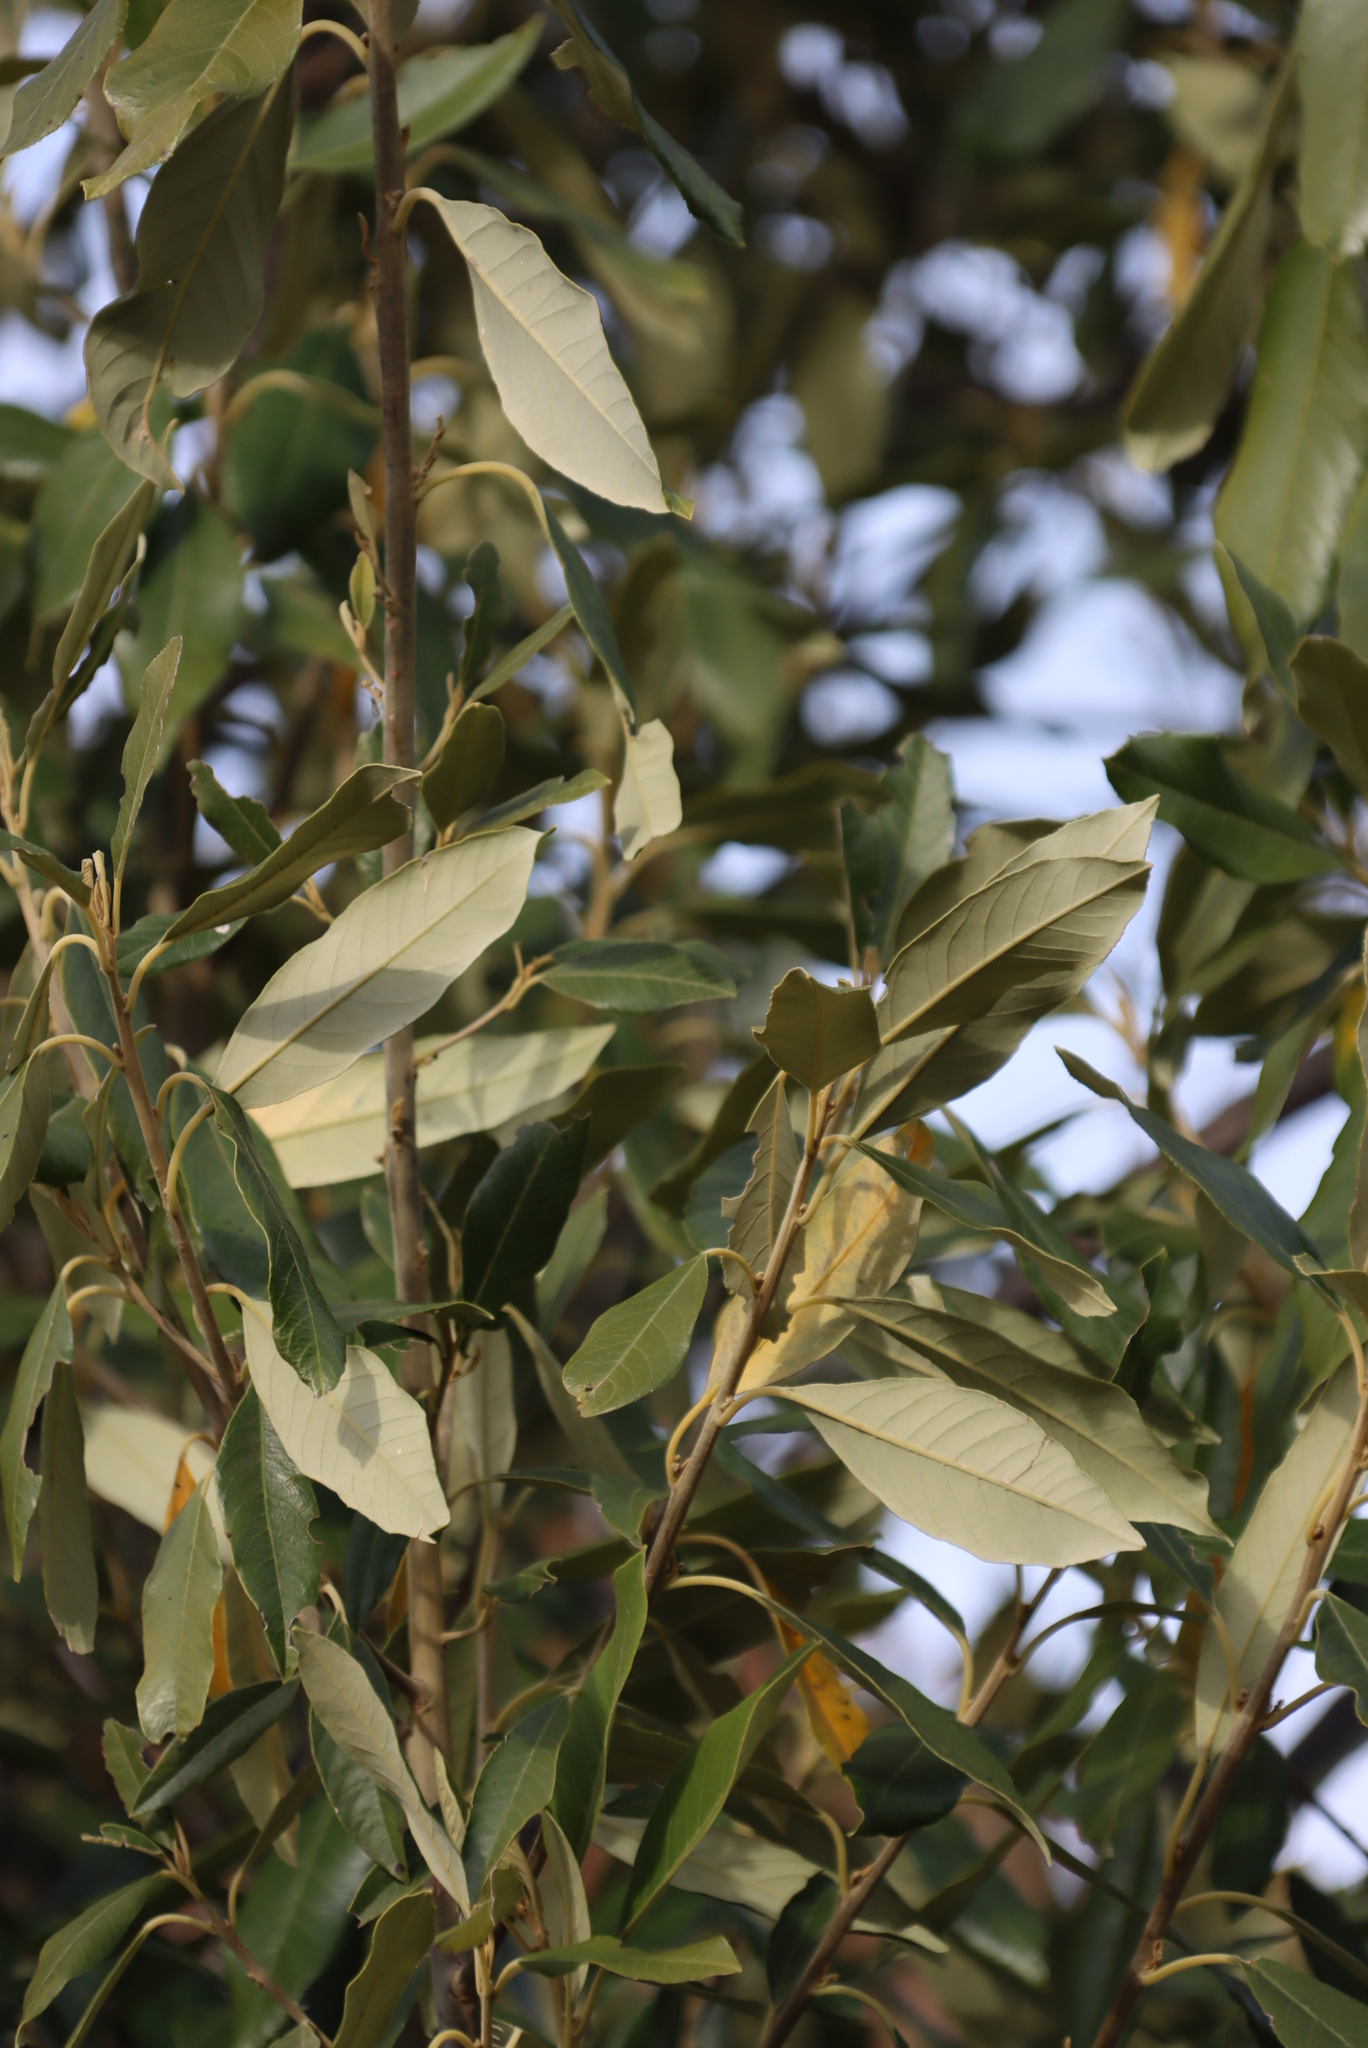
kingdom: Plantae
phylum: Tracheophyta
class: Magnoliopsida
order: Malpighiales
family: Achariaceae
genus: Kiggelaria
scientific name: Kiggelaria africana
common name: Wild peach
